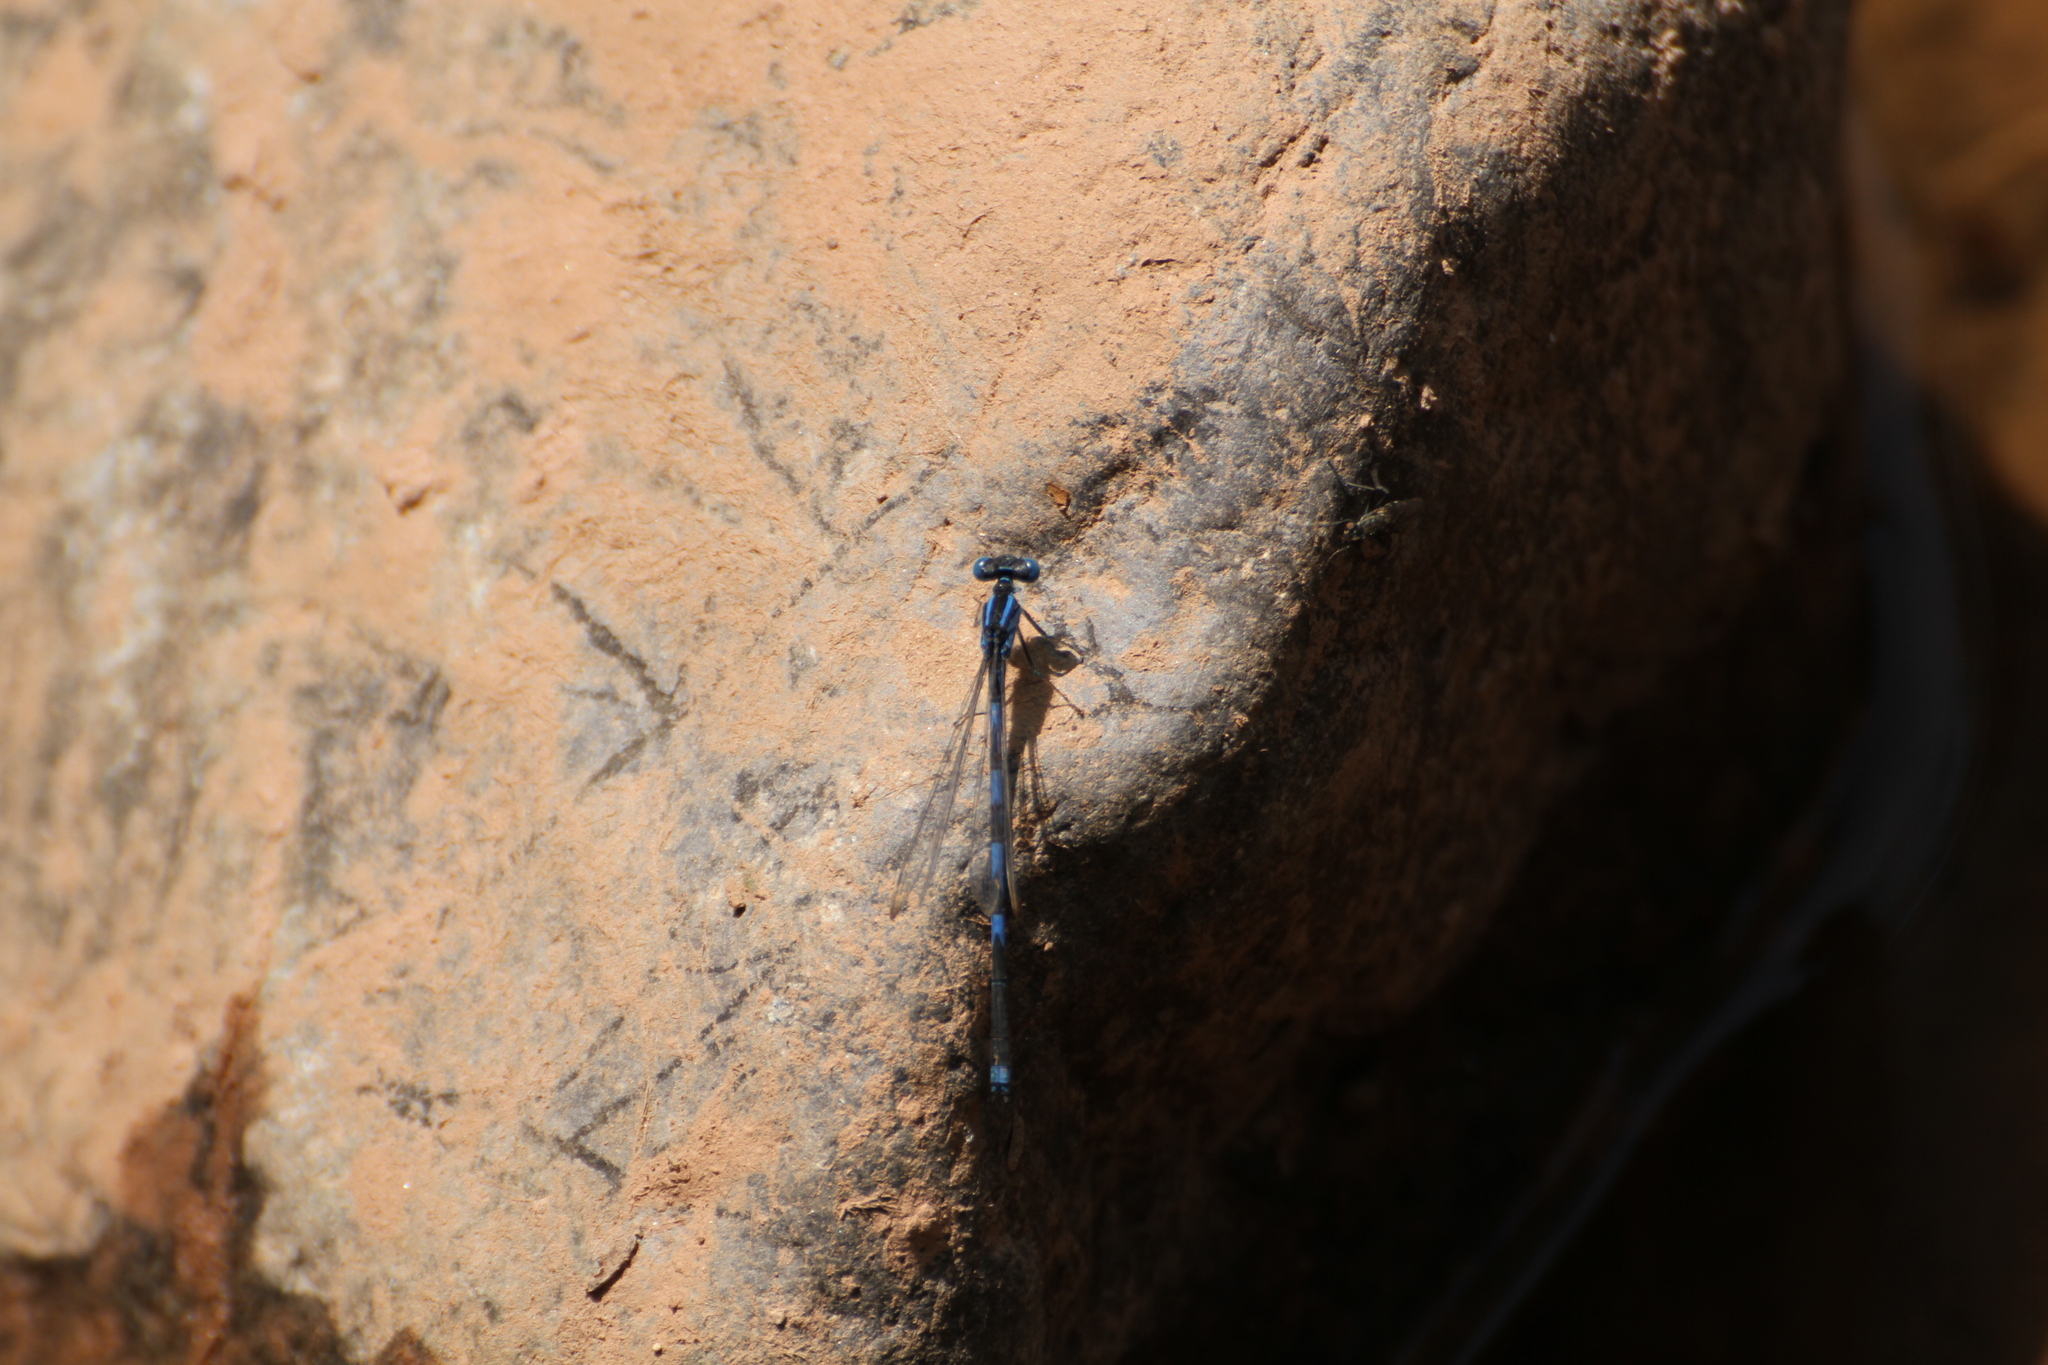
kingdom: Animalia
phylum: Arthropoda
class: Insecta
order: Odonata
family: Coenagrionidae
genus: Erythromma
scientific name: Erythromma lindenii
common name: Blue-eye
